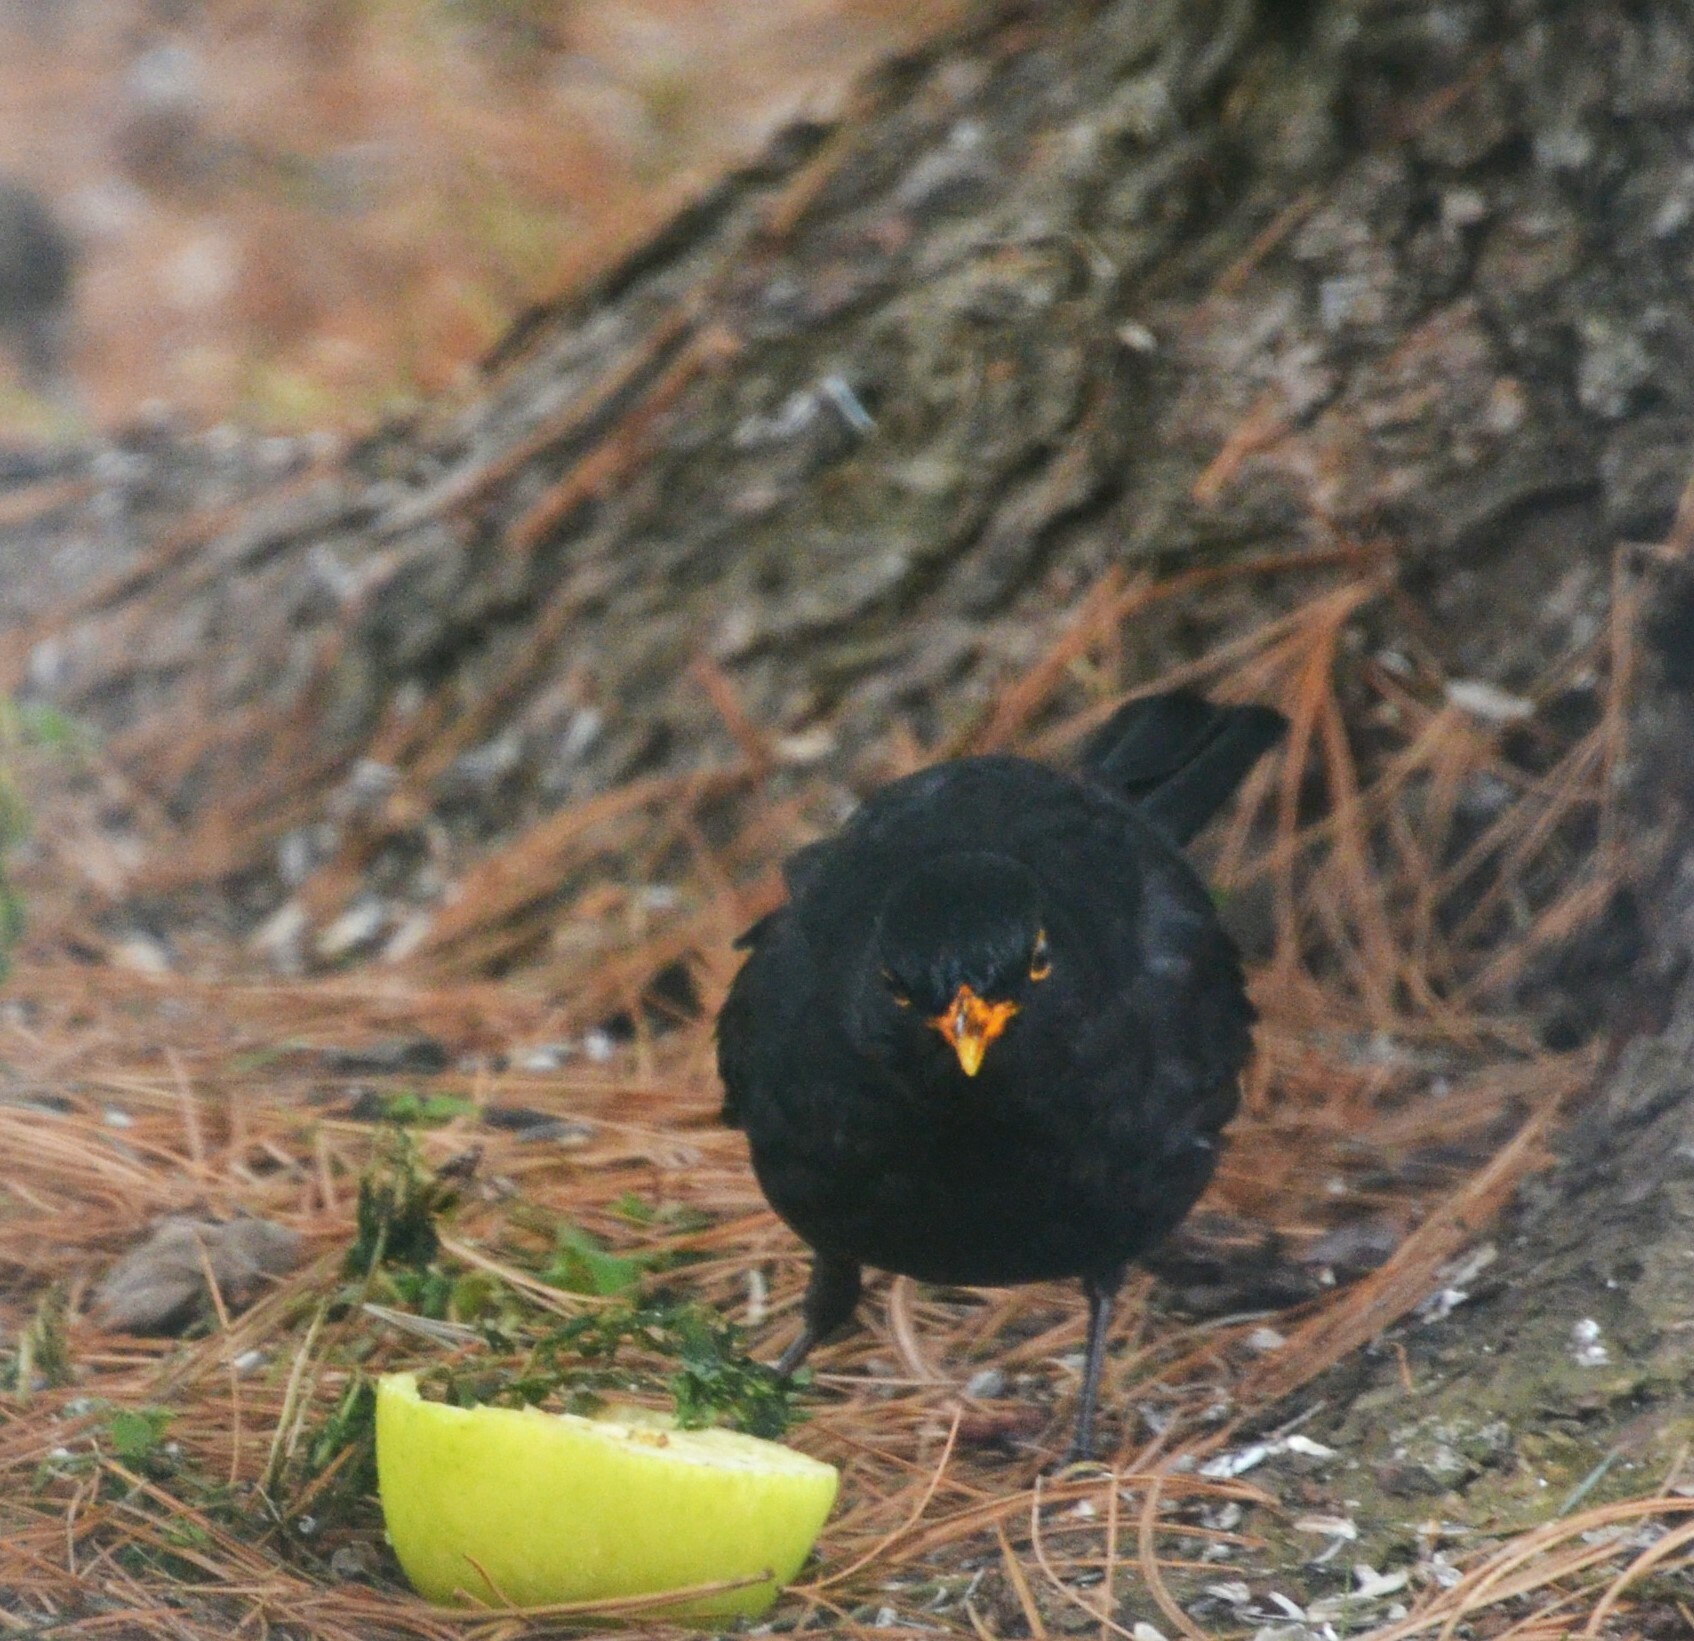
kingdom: Animalia
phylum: Chordata
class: Aves
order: Passeriformes
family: Turdidae
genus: Turdus
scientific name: Turdus merula
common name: Common blackbird
